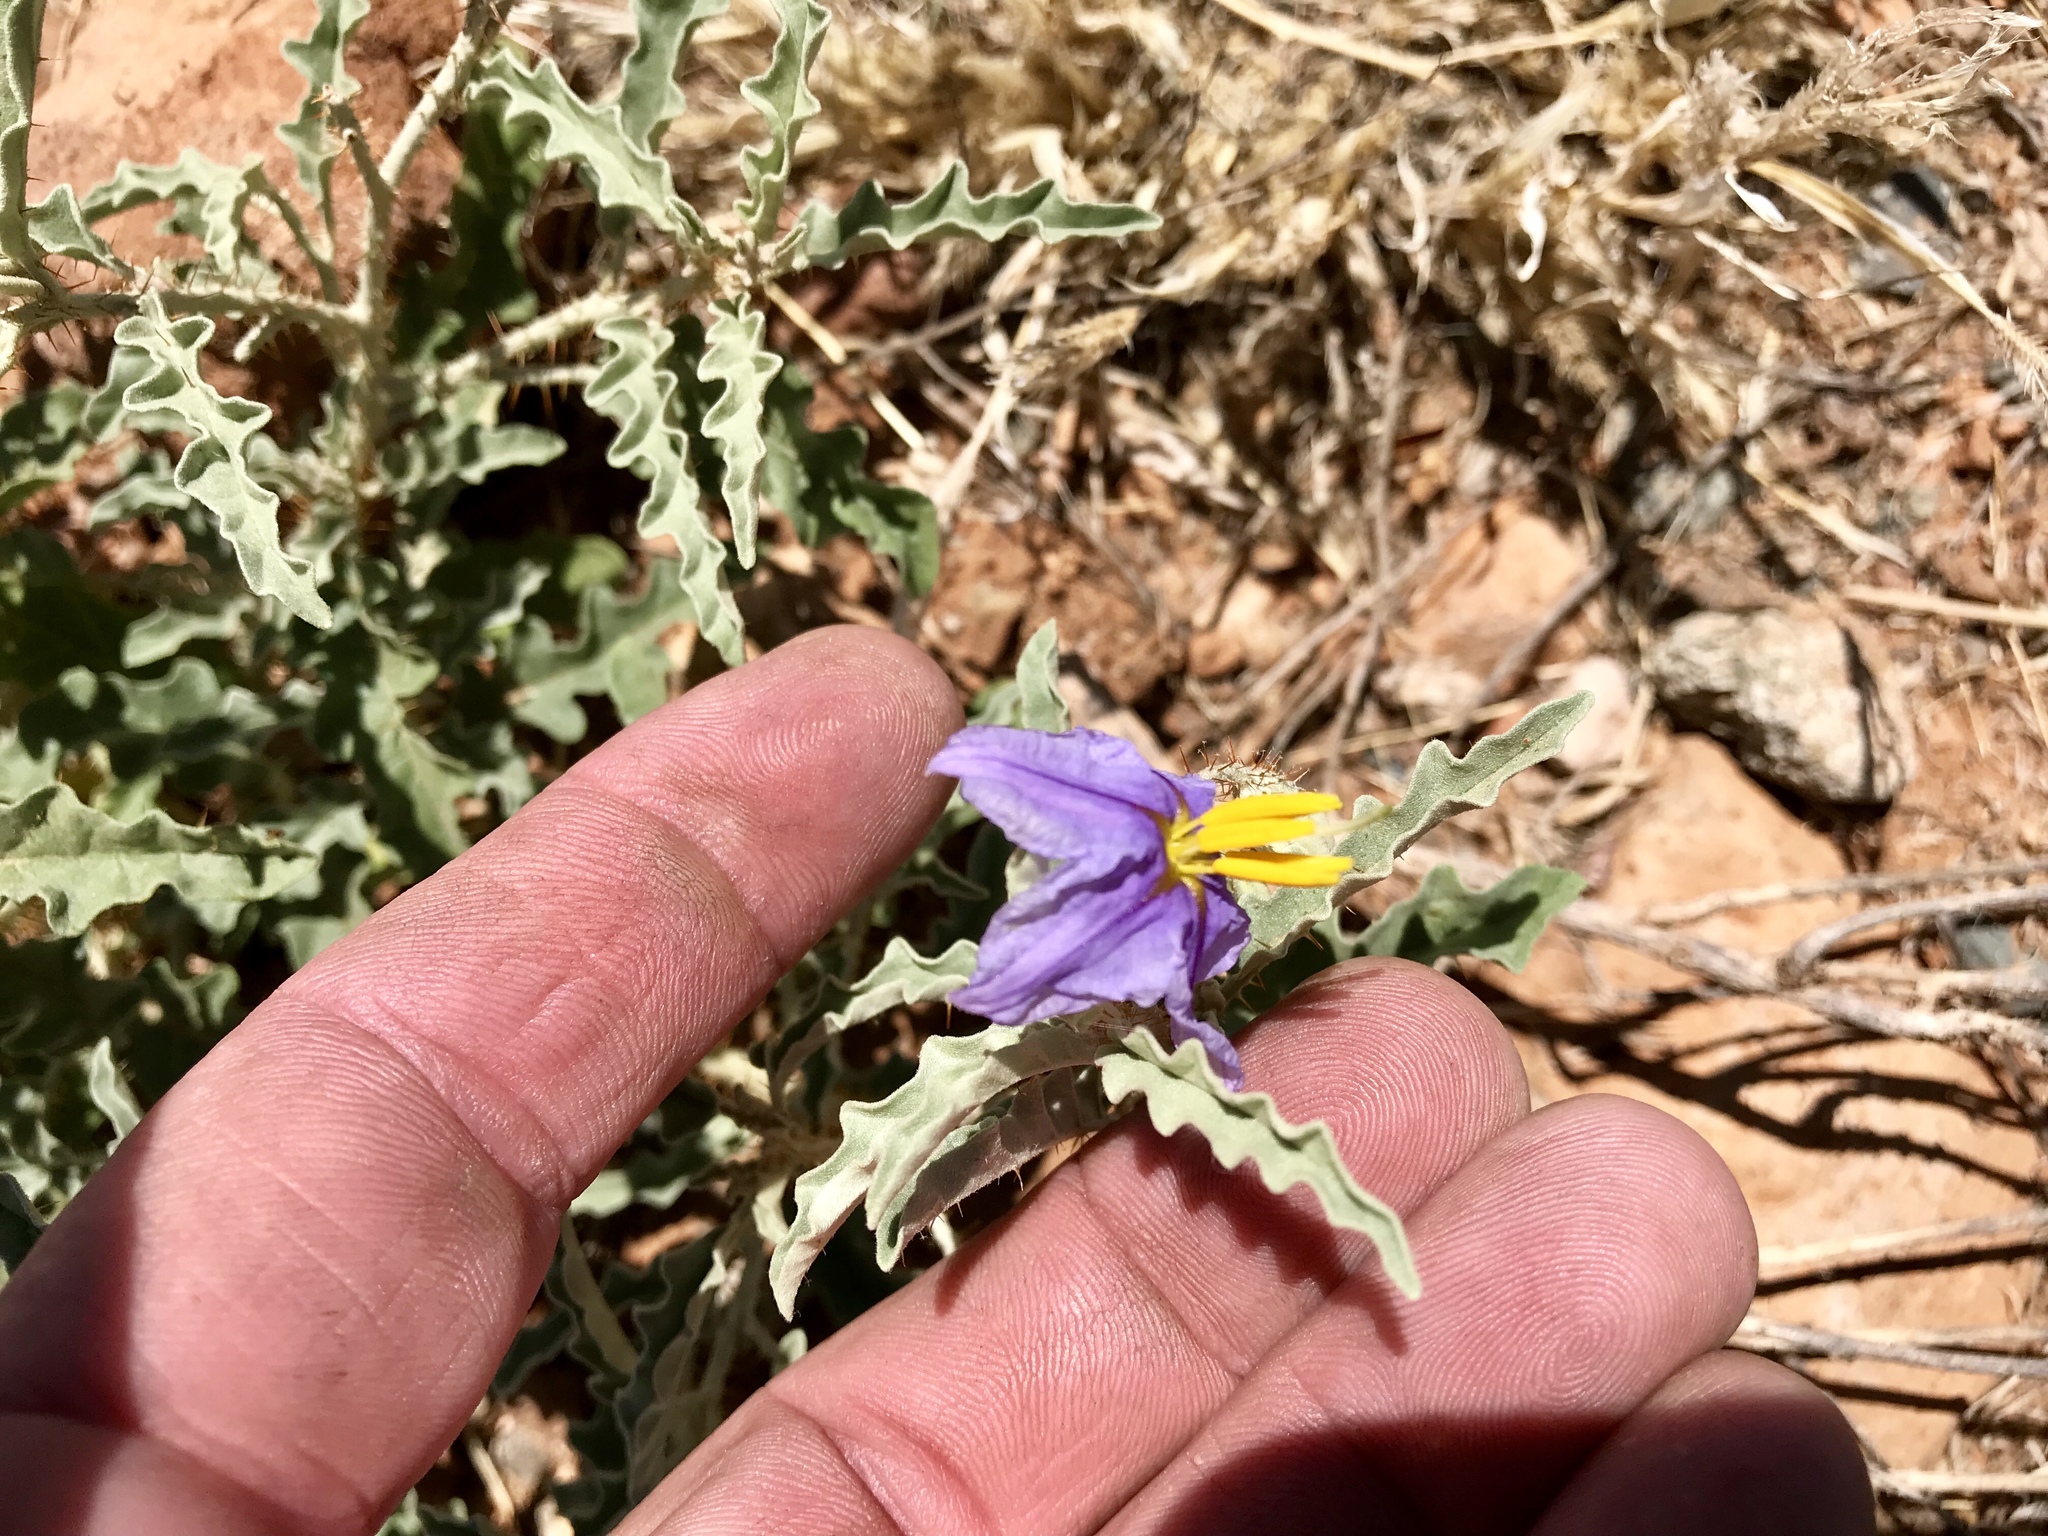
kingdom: Plantae
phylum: Tracheophyta
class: Magnoliopsida
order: Solanales
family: Solanaceae
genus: Solanum
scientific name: Solanum elaeagnifolium
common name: Silverleaf nightshade
